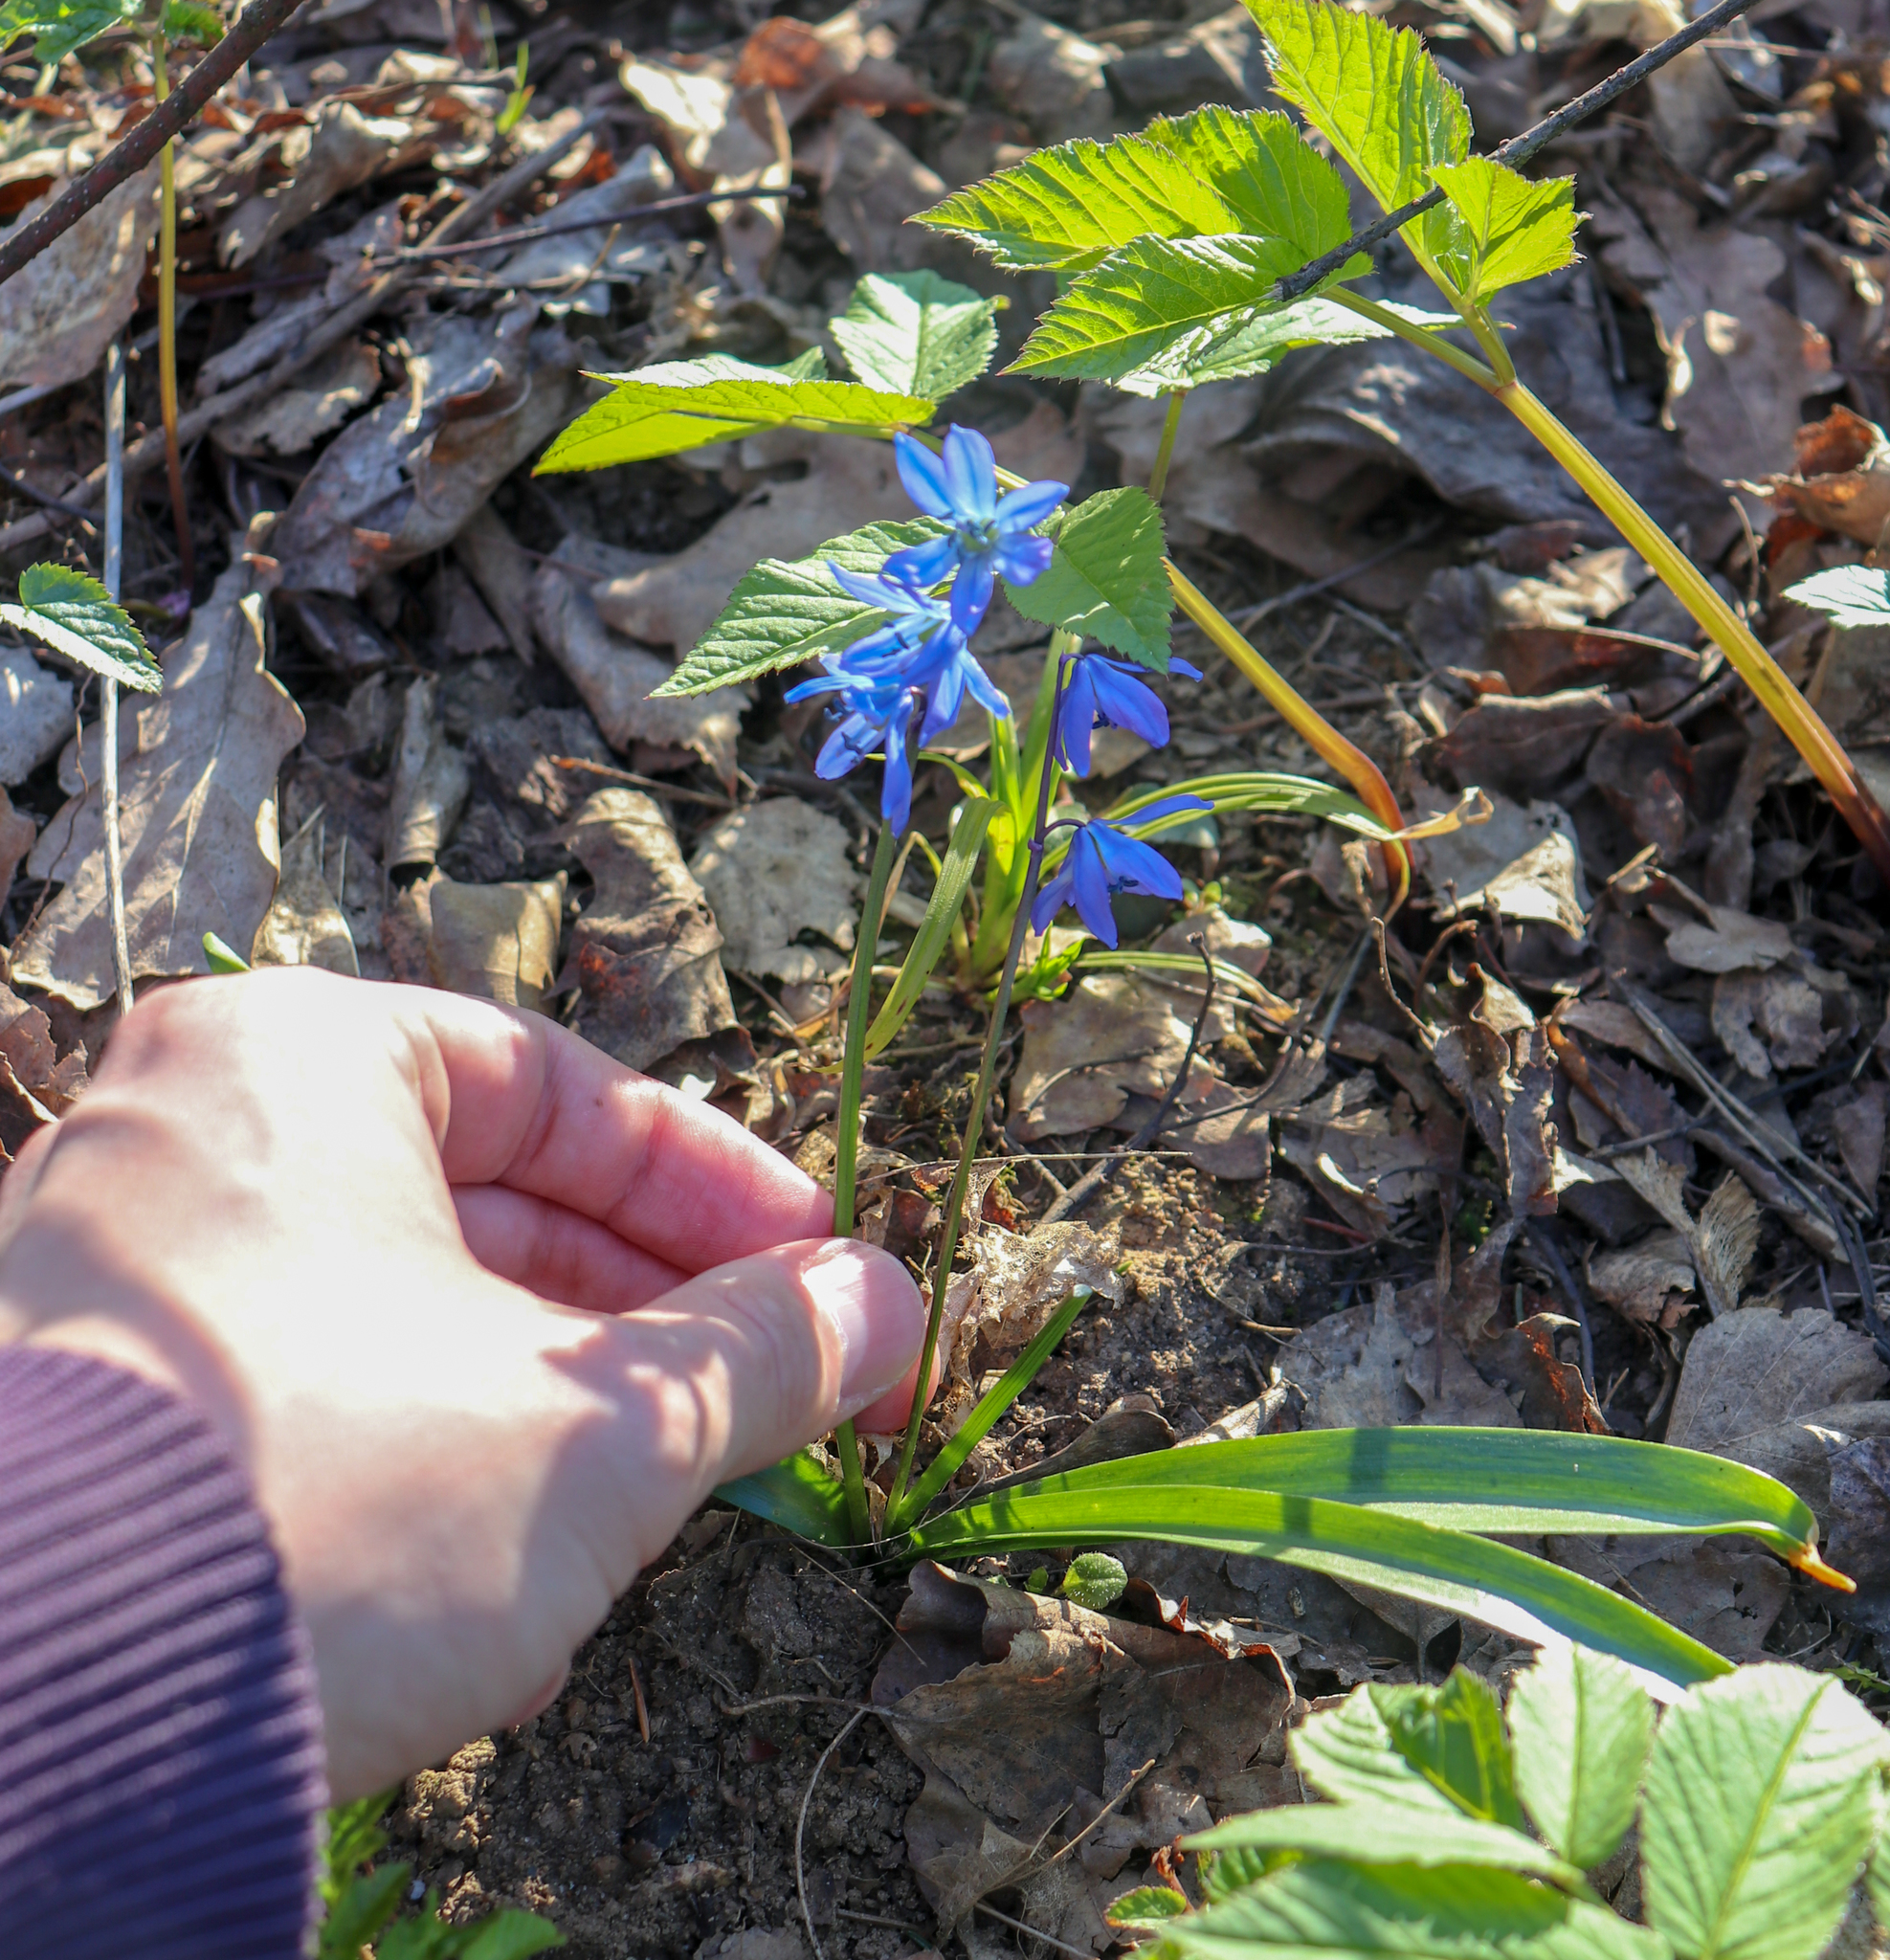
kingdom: Plantae
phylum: Tracheophyta
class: Liliopsida
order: Asparagales
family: Asparagaceae
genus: Scilla
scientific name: Scilla siberica
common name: Siberian squill
